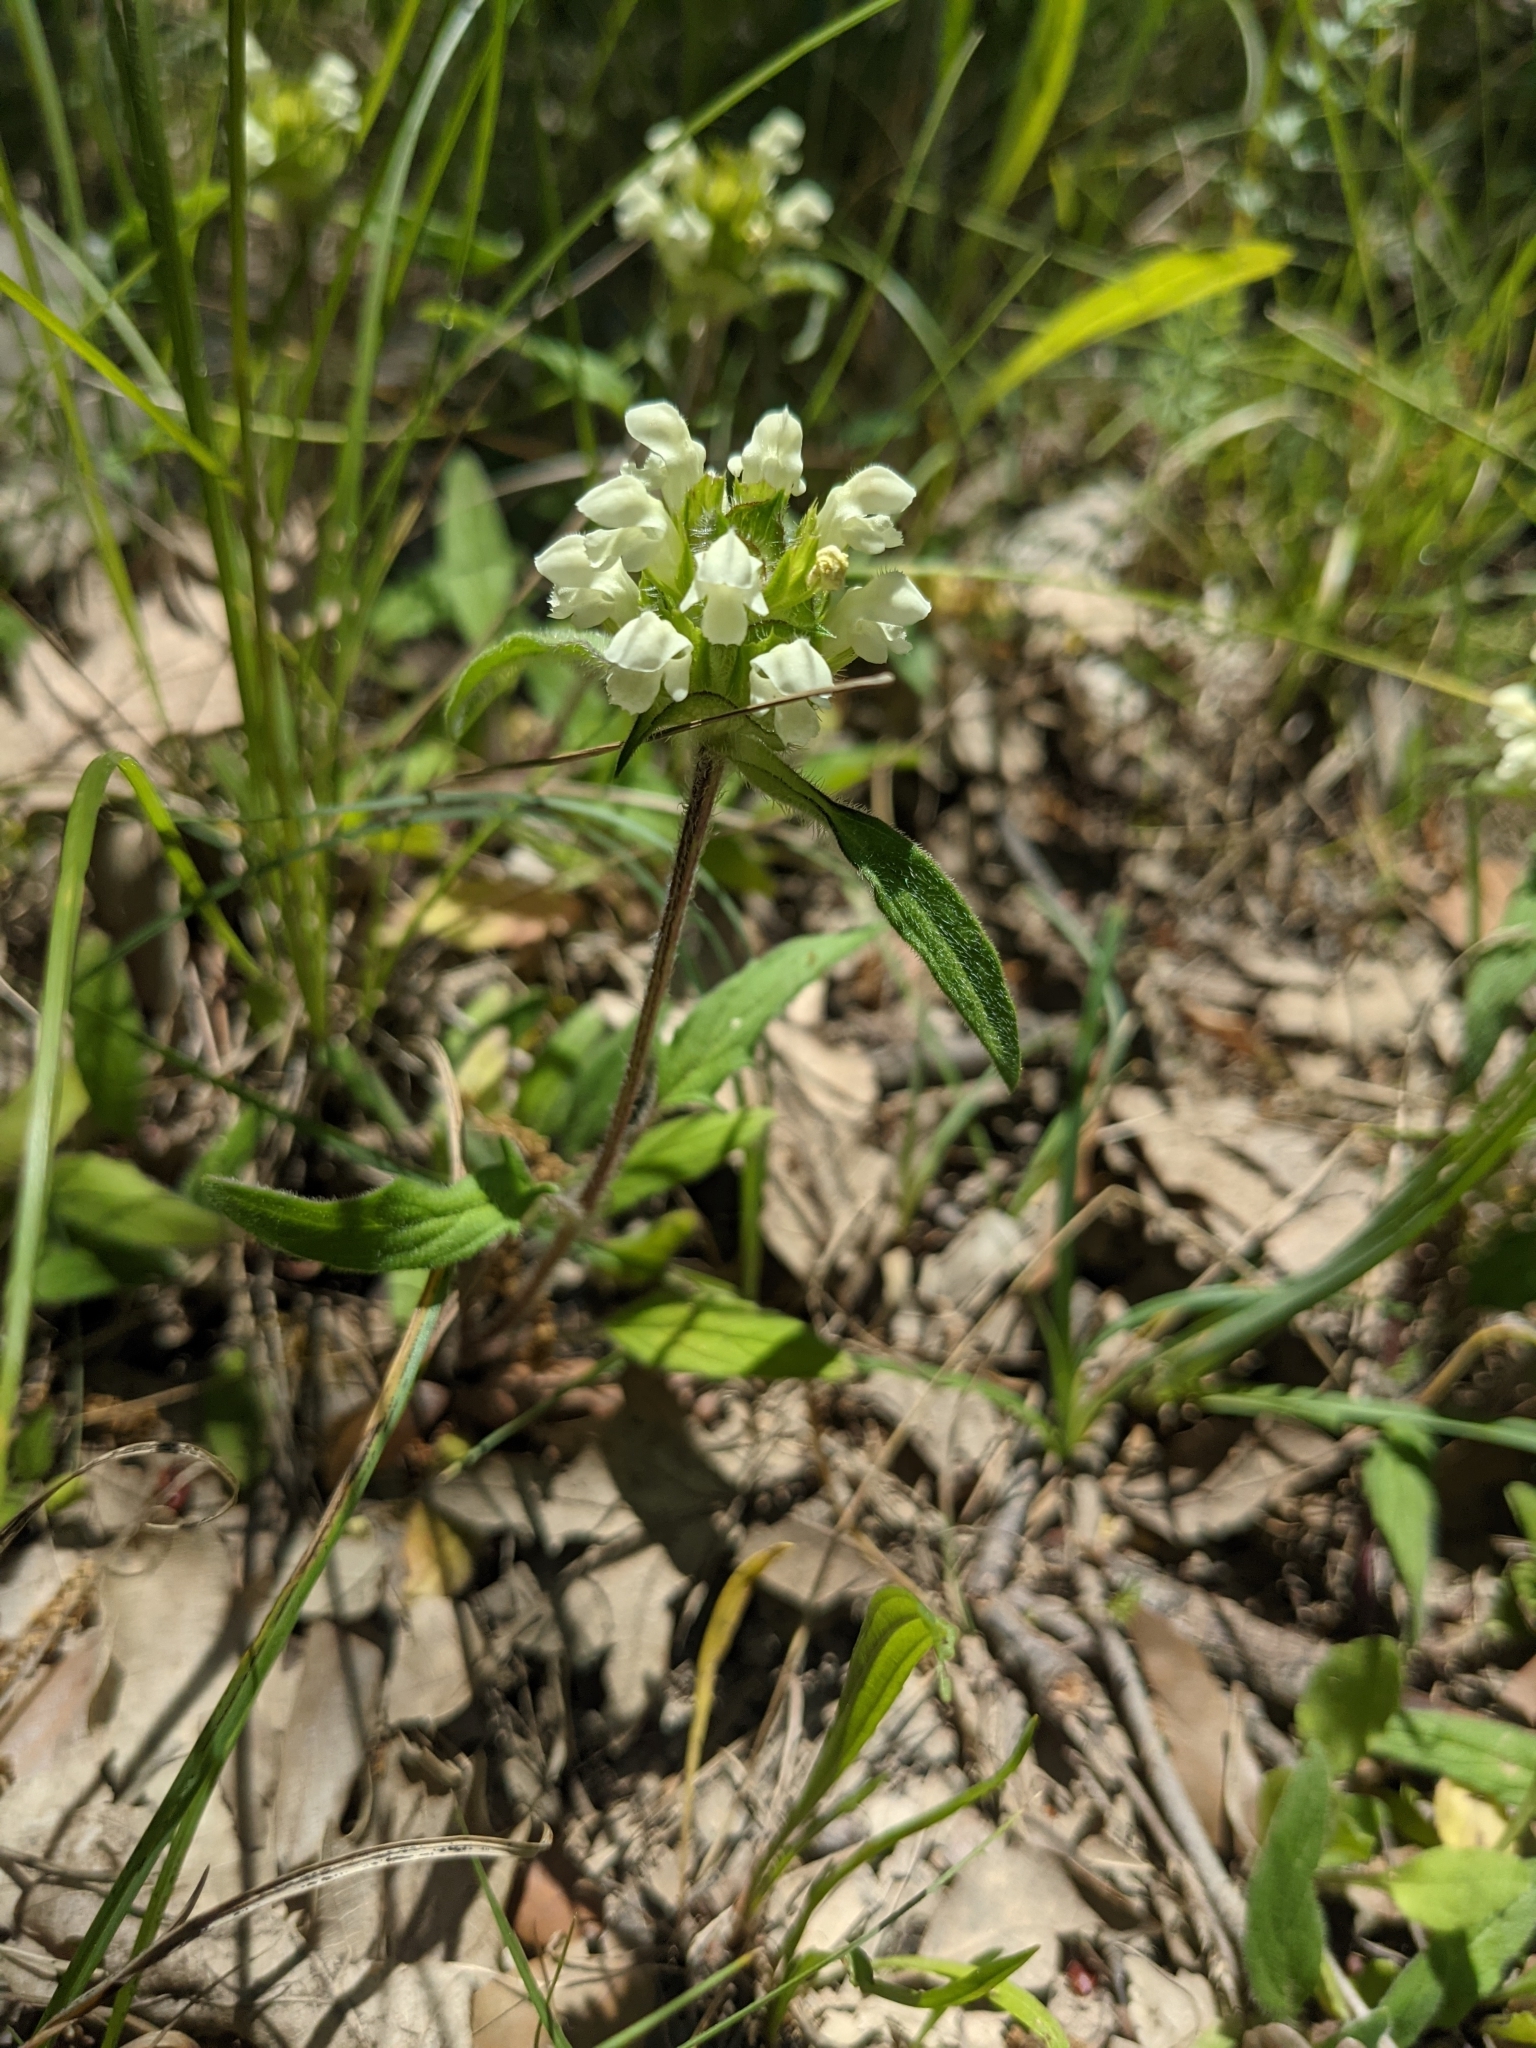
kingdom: Plantae
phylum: Tracheophyta
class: Magnoliopsida
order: Lamiales
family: Lamiaceae
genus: Prunella
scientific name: Prunella laciniata
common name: Cut-leaved selfheal
